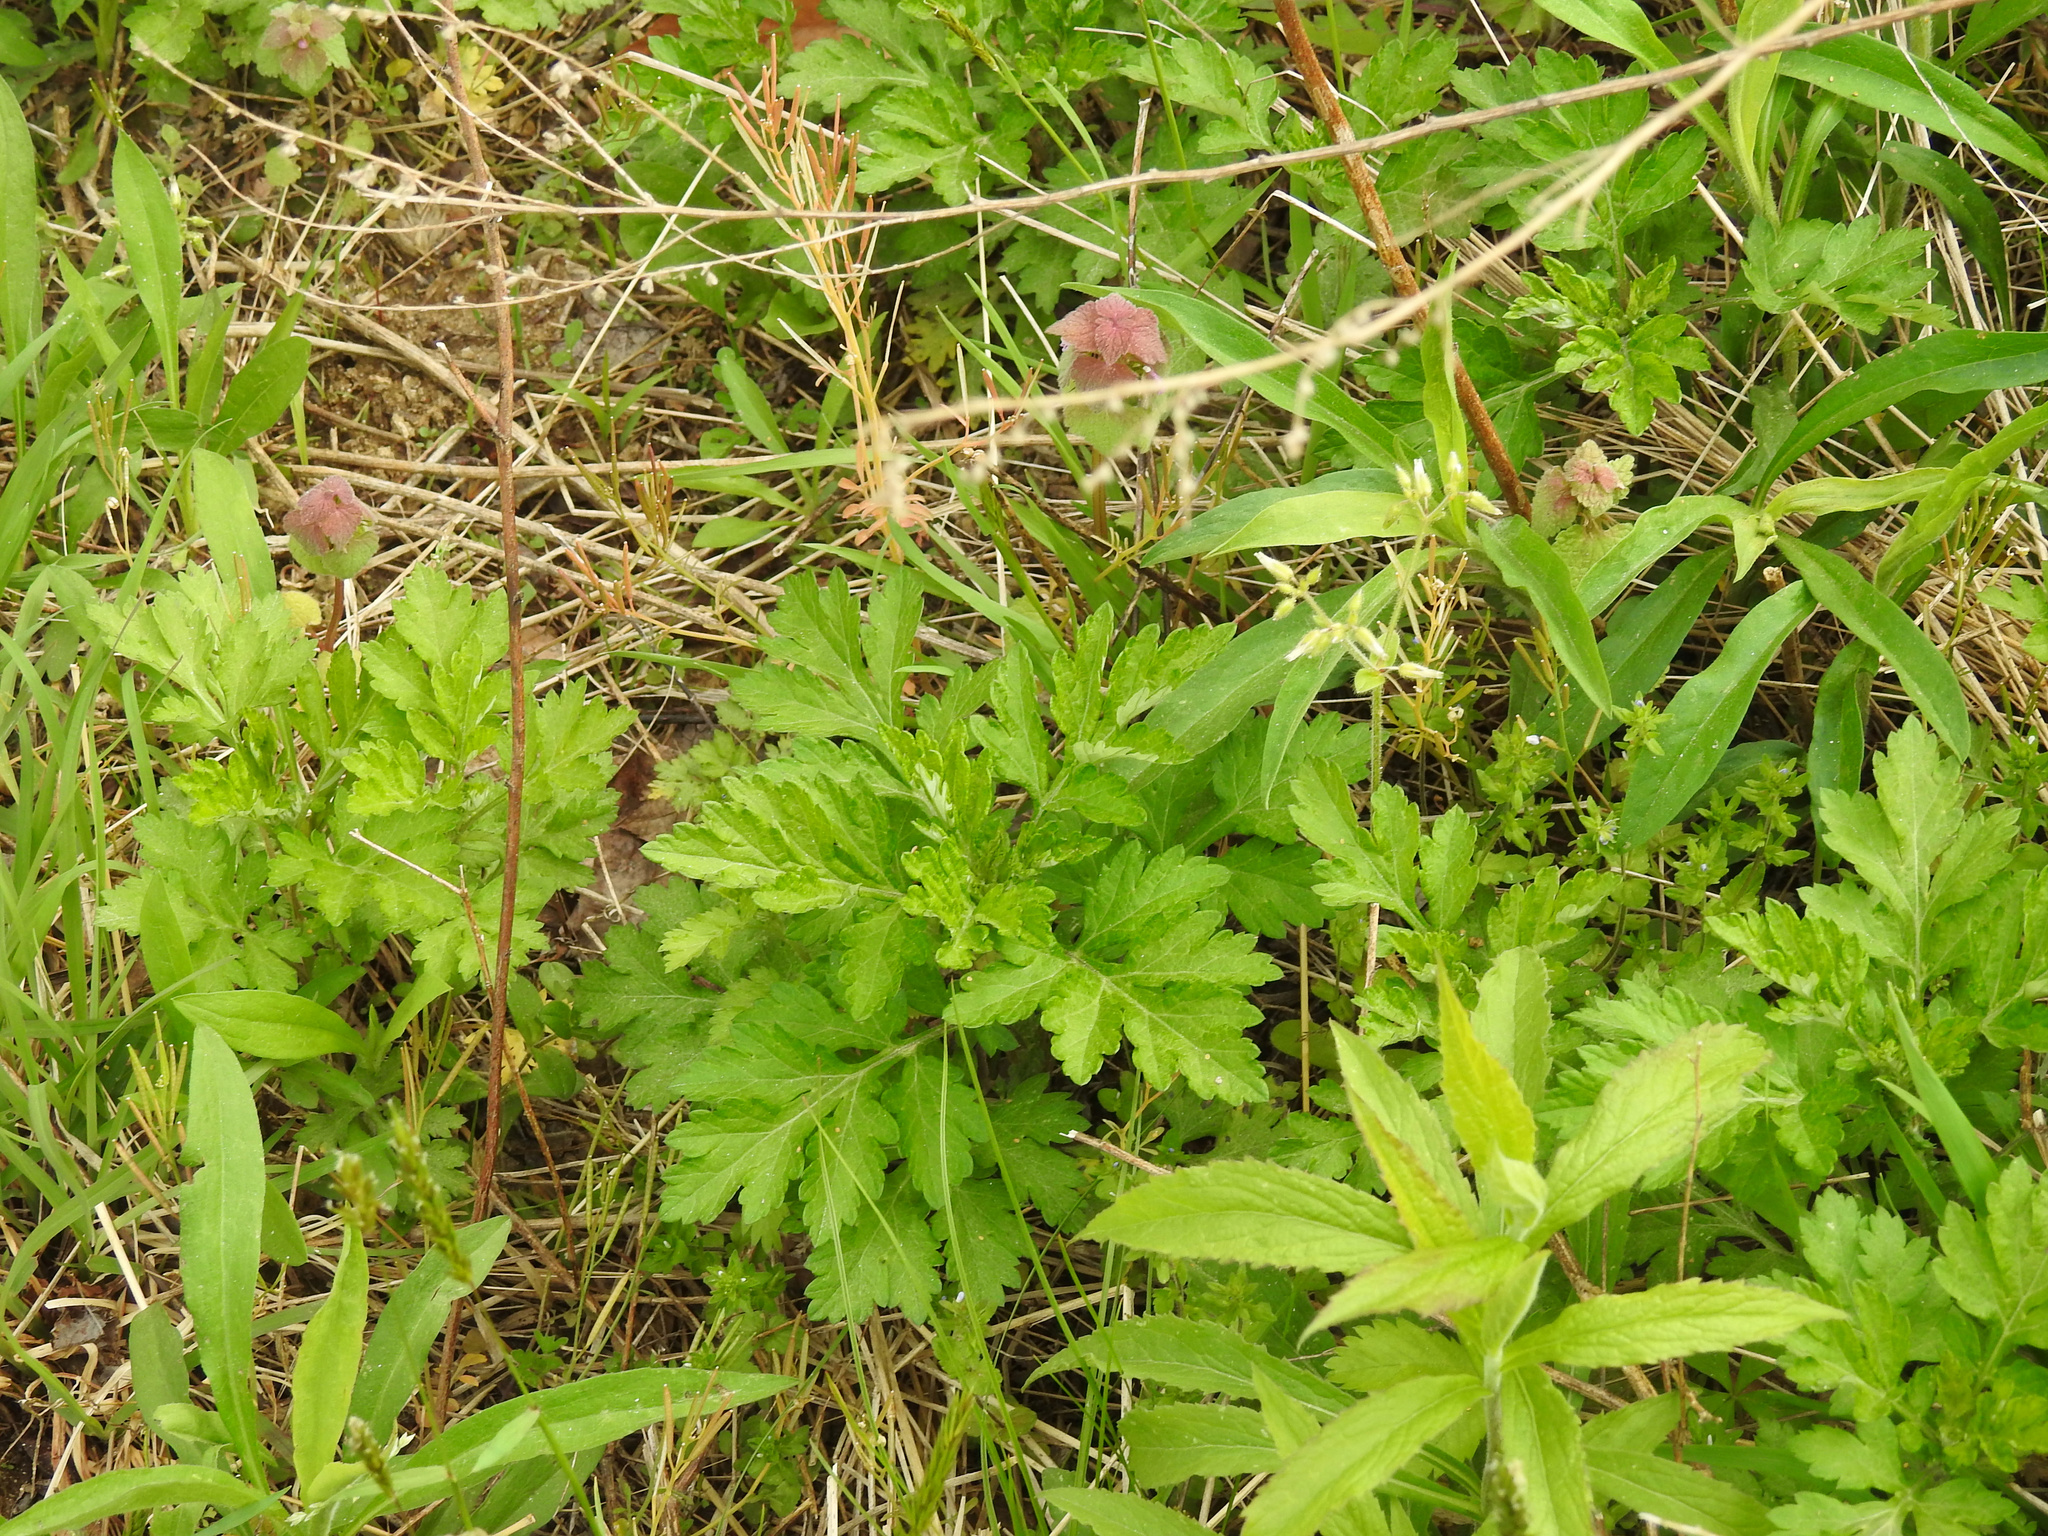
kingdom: Plantae
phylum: Tracheophyta
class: Magnoliopsida
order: Asterales
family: Asteraceae
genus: Artemisia
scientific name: Artemisia vulgaris
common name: Mugwort
